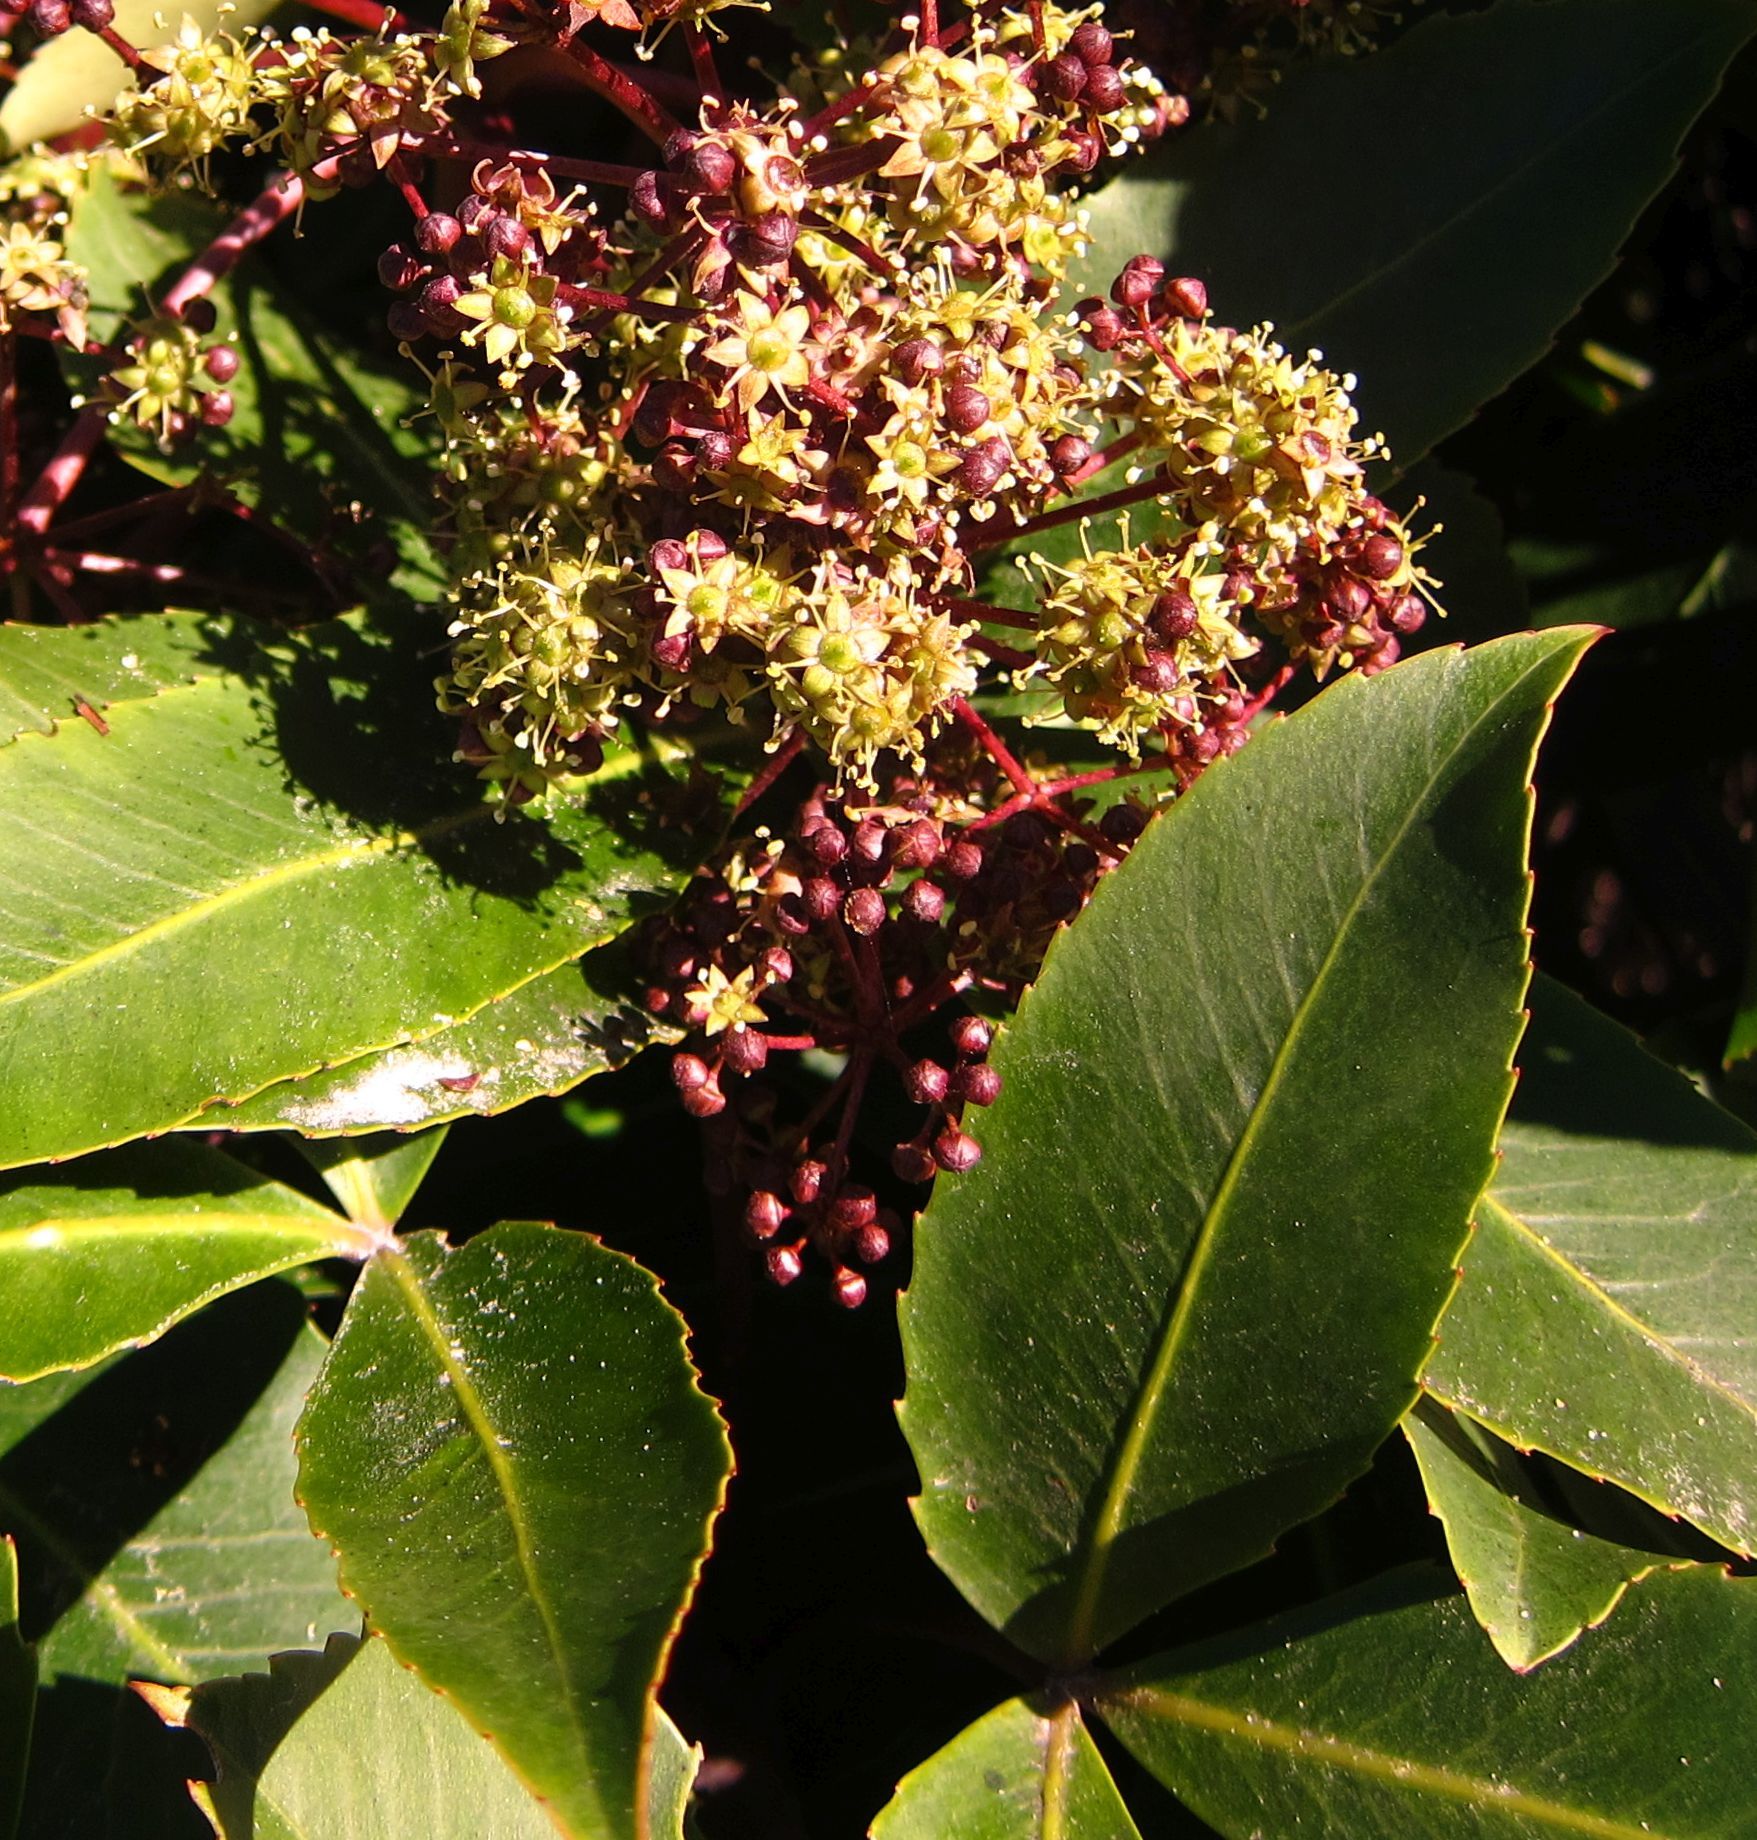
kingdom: Plantae
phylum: Tracheophyta
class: Magnoliopsida
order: Apiales
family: Araliaceae
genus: Neopanax
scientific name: Neopanax colensoi
